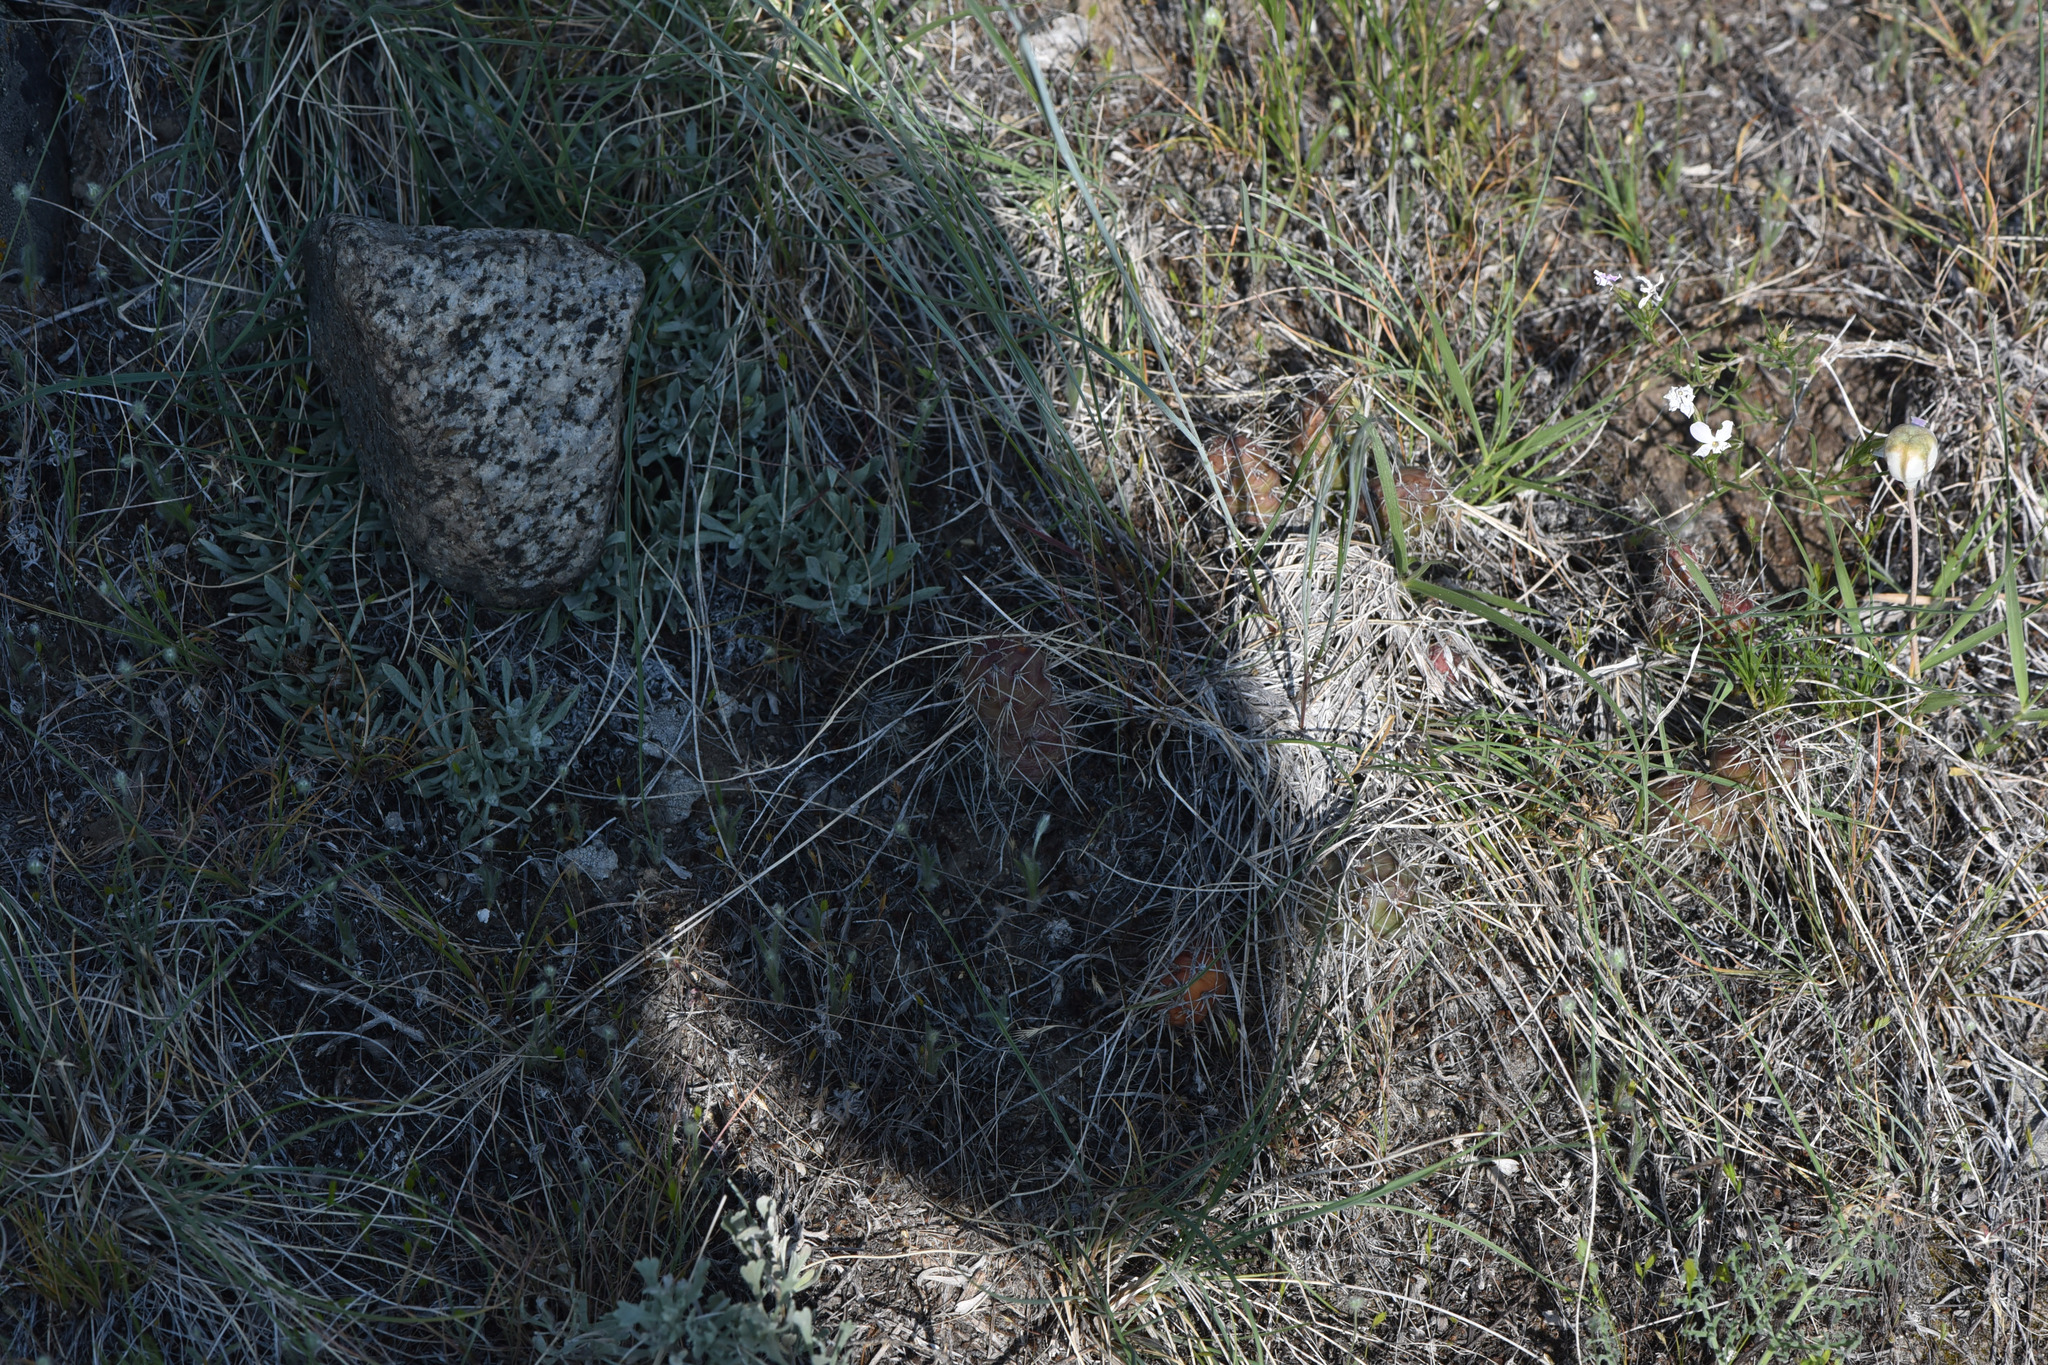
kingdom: Plantae
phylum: Tracheophyta
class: Magnoliopsida
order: Caryophyllales
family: Cactaceae
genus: Opuntia
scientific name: Opuntia fragilis
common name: Brittle cactus
